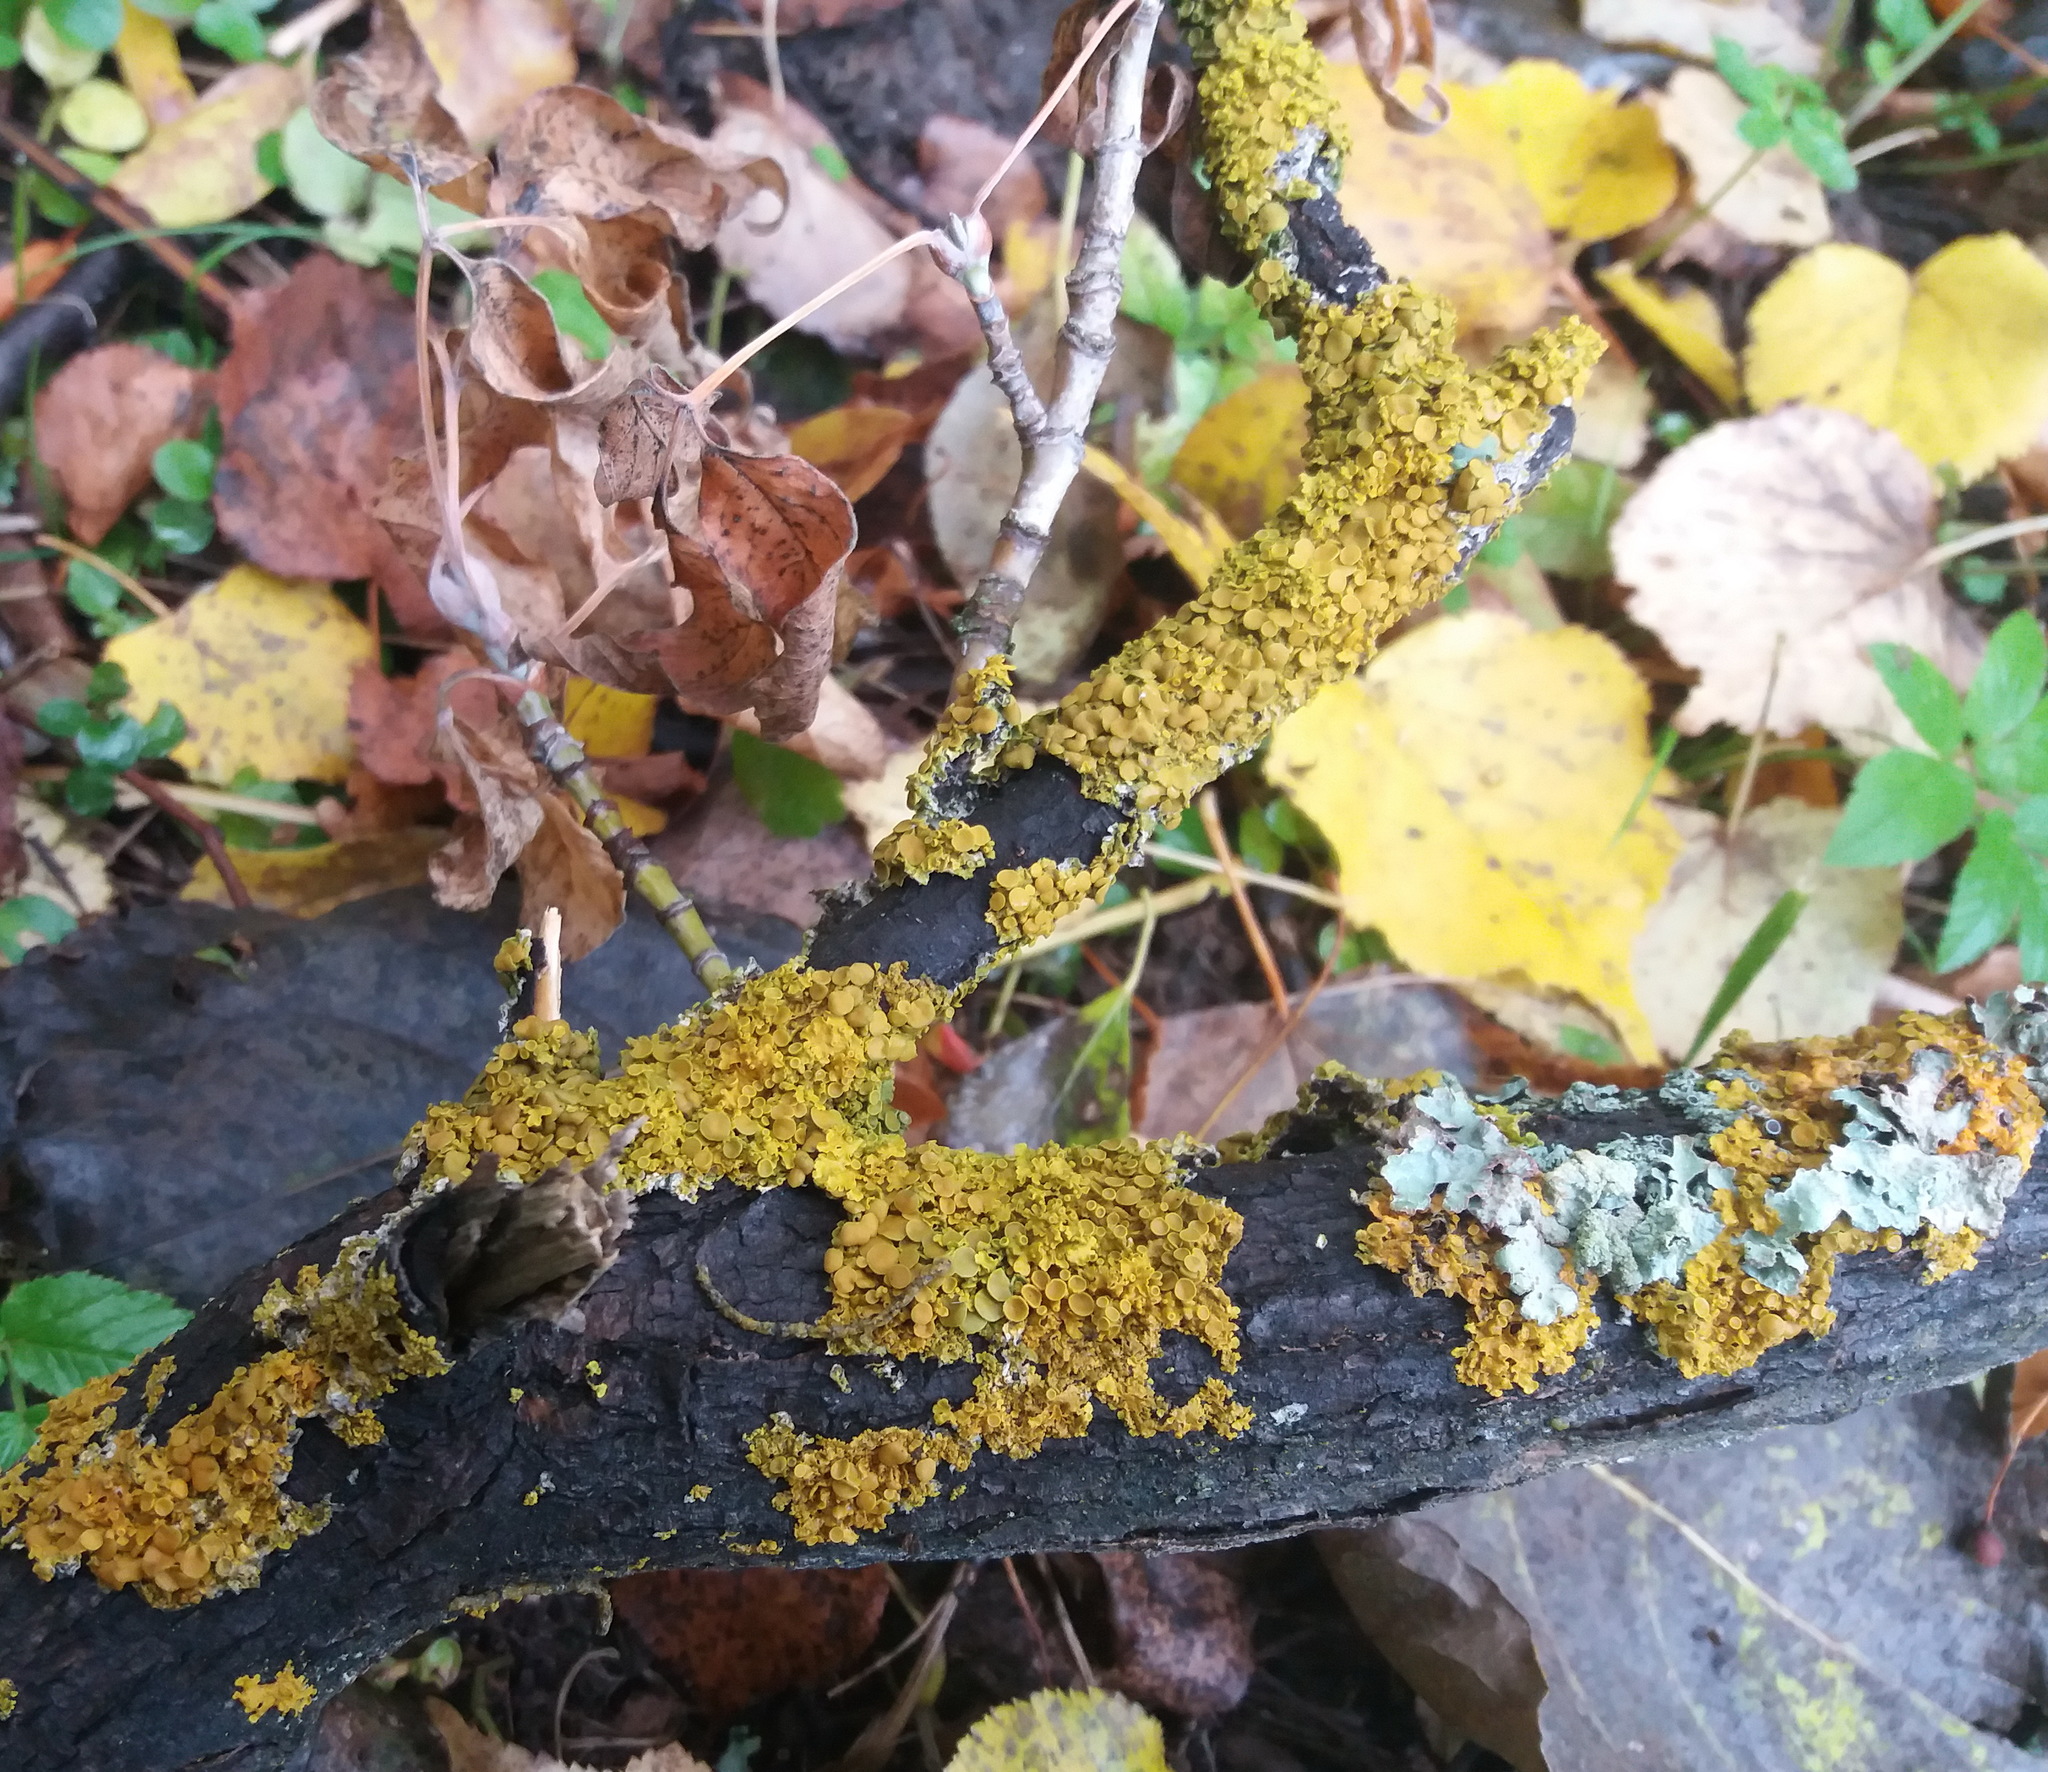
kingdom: Fungi
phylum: Ascomycota
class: Lecanoromycetes
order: Teloschistales
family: Teloschistaceae
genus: Xanthoria
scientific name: Xanthoria parietina
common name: Common orange lichen
